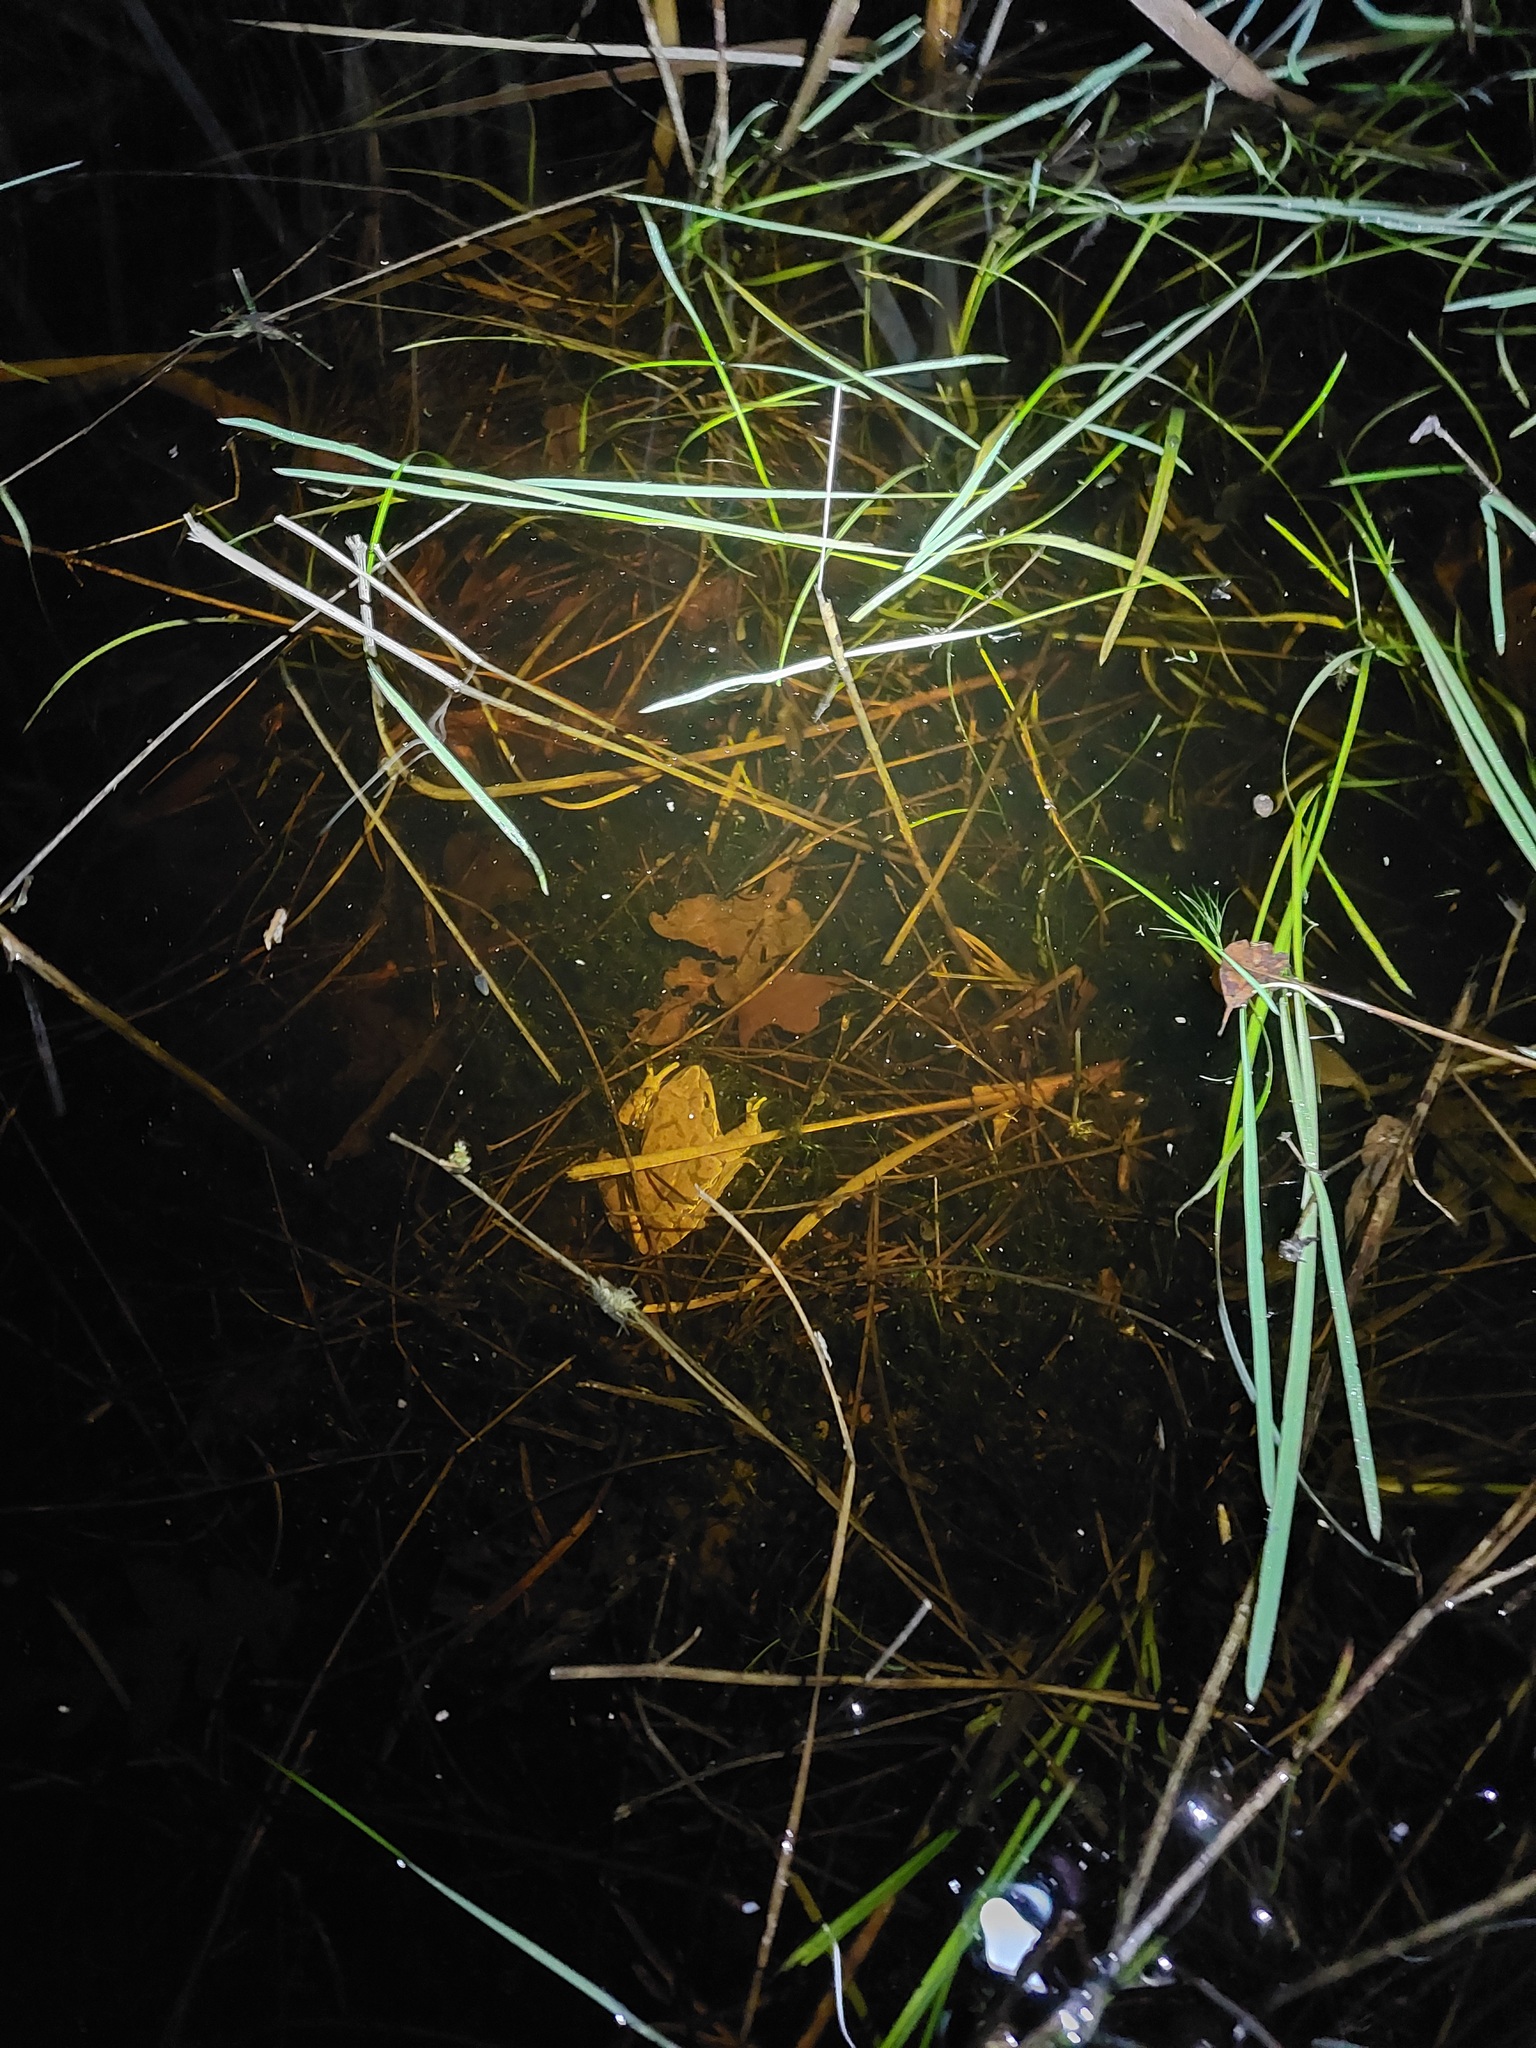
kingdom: Animalia
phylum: Chordata
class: Amphibia
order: Anura
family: Ranidae
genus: Rana
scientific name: Rana dalmatina
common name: Agile frog
